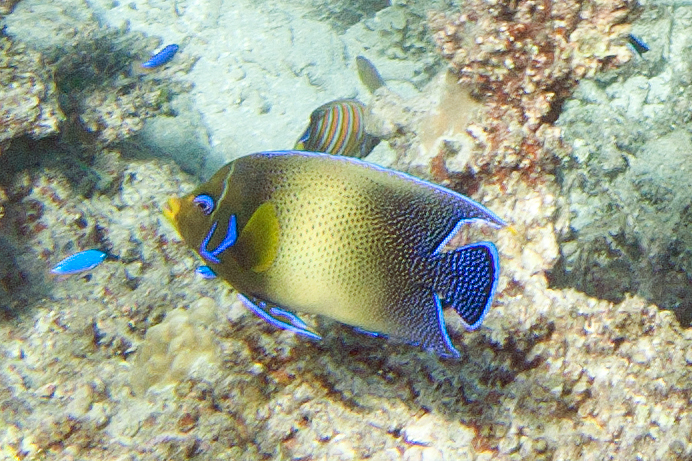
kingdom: Animalia
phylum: Chordata
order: Perciformes
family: Pomacanthidae
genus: Pomacanthus
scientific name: Pomacanthus semicirculatus
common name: Semicircle angelfish
